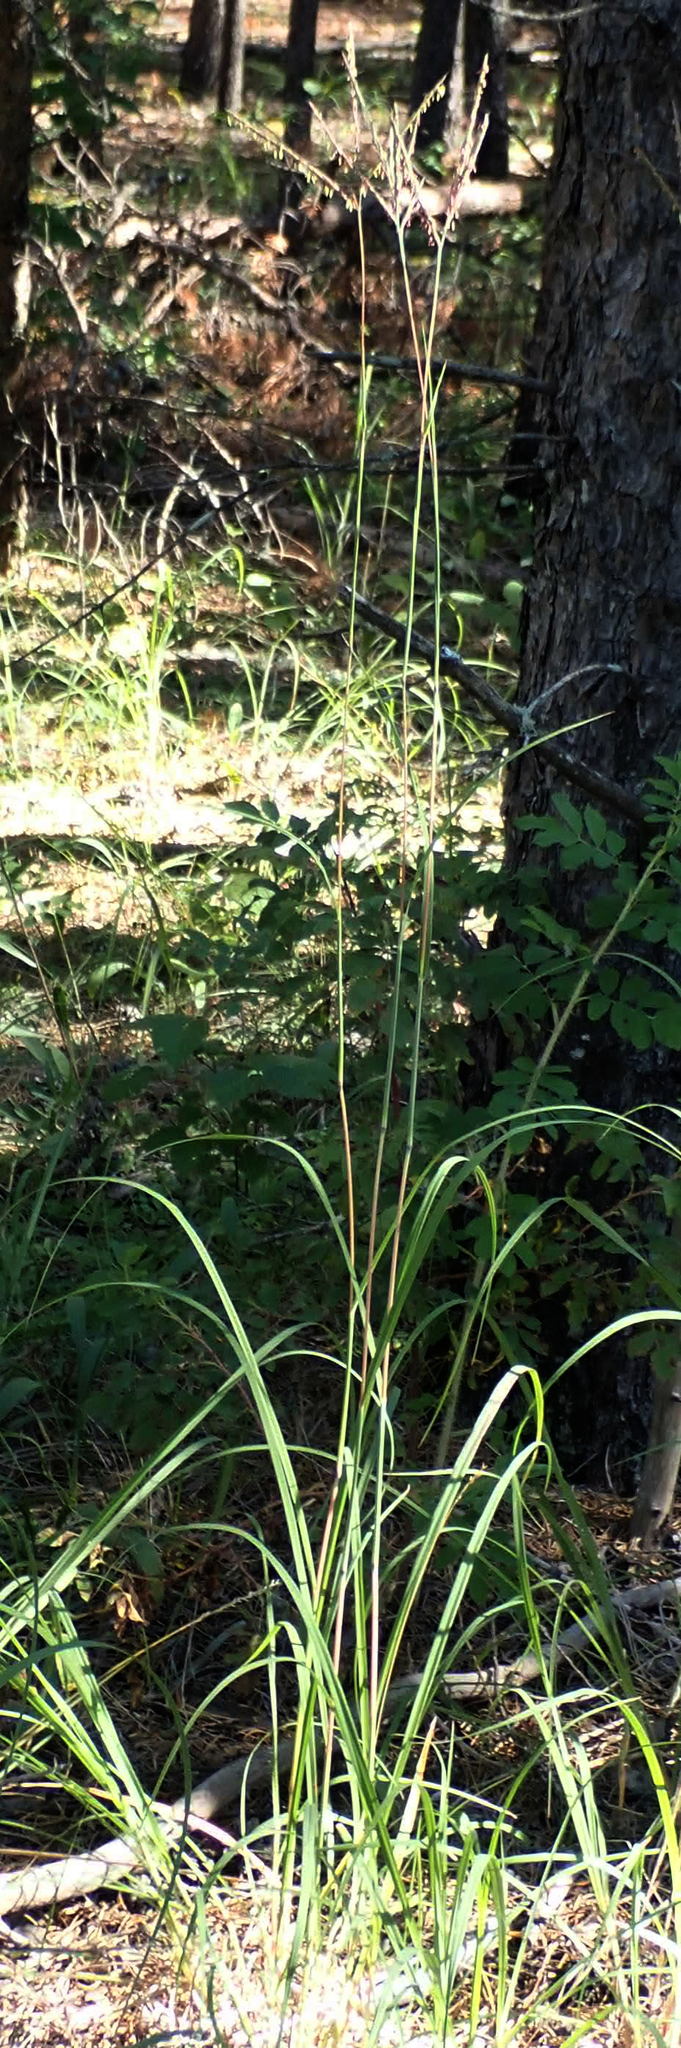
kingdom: Plantae
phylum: Tracheophyta
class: Liliopsida
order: Poales
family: Poaceae
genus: Andropogon
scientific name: Andropogon gerardi
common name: Big bluestem
